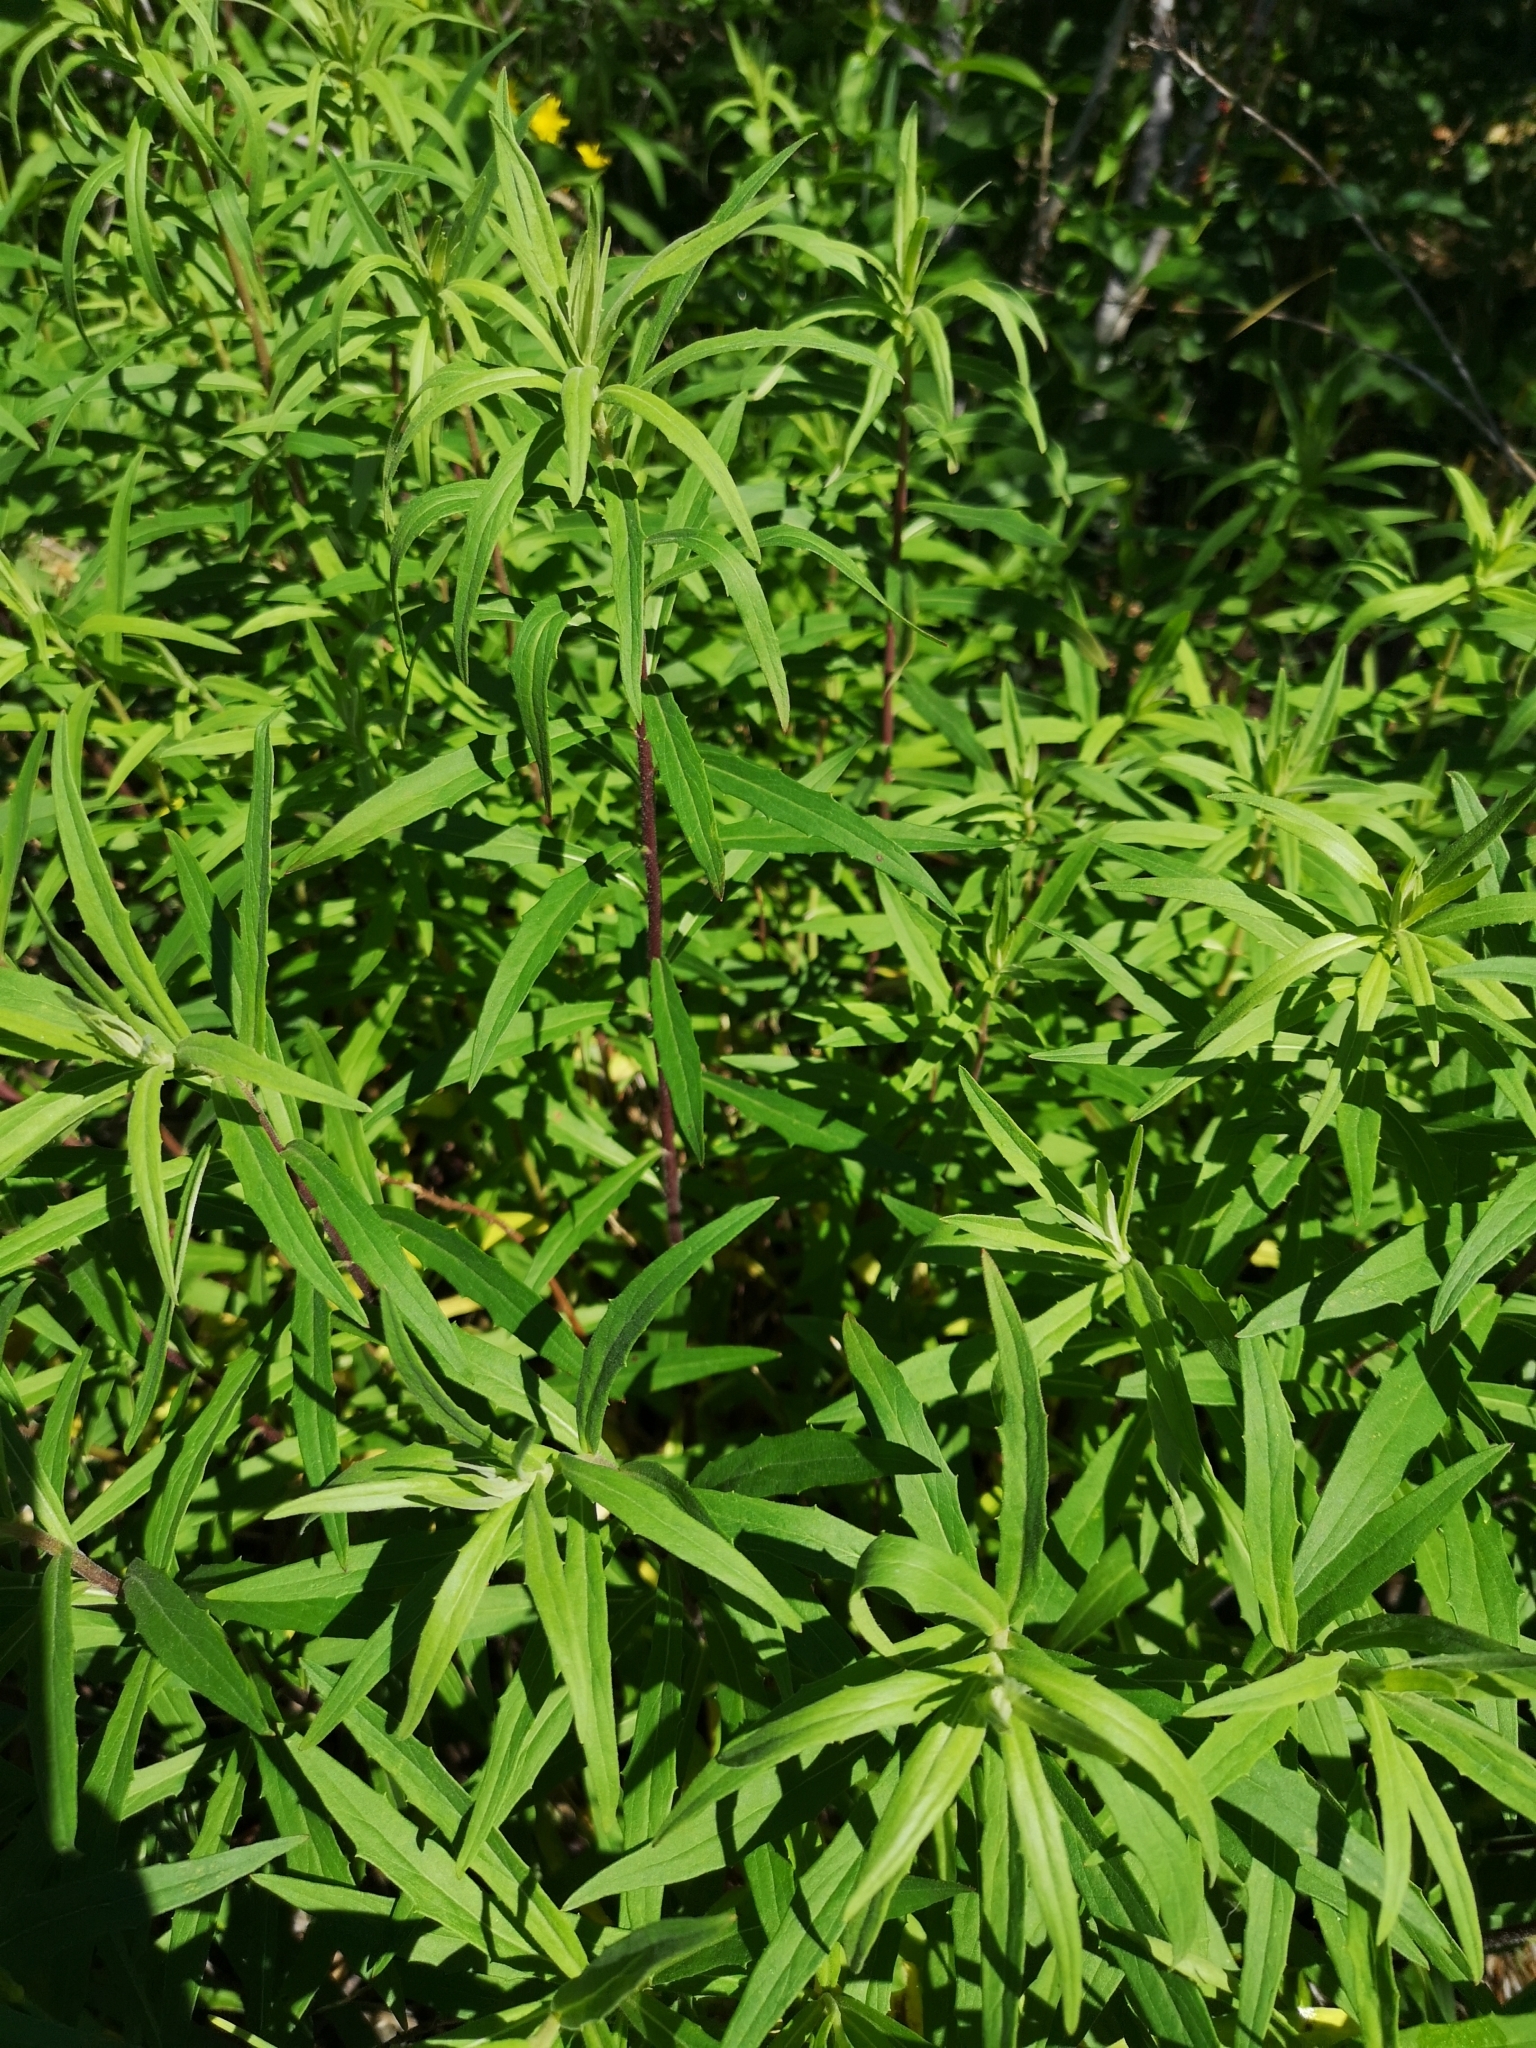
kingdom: Plantae
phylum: Tracheophyta
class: Magnoliopsida
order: Asterales
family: Asteraceae
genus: Hieracium
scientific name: Hieracium umbellatum
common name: Northern hawkweed
